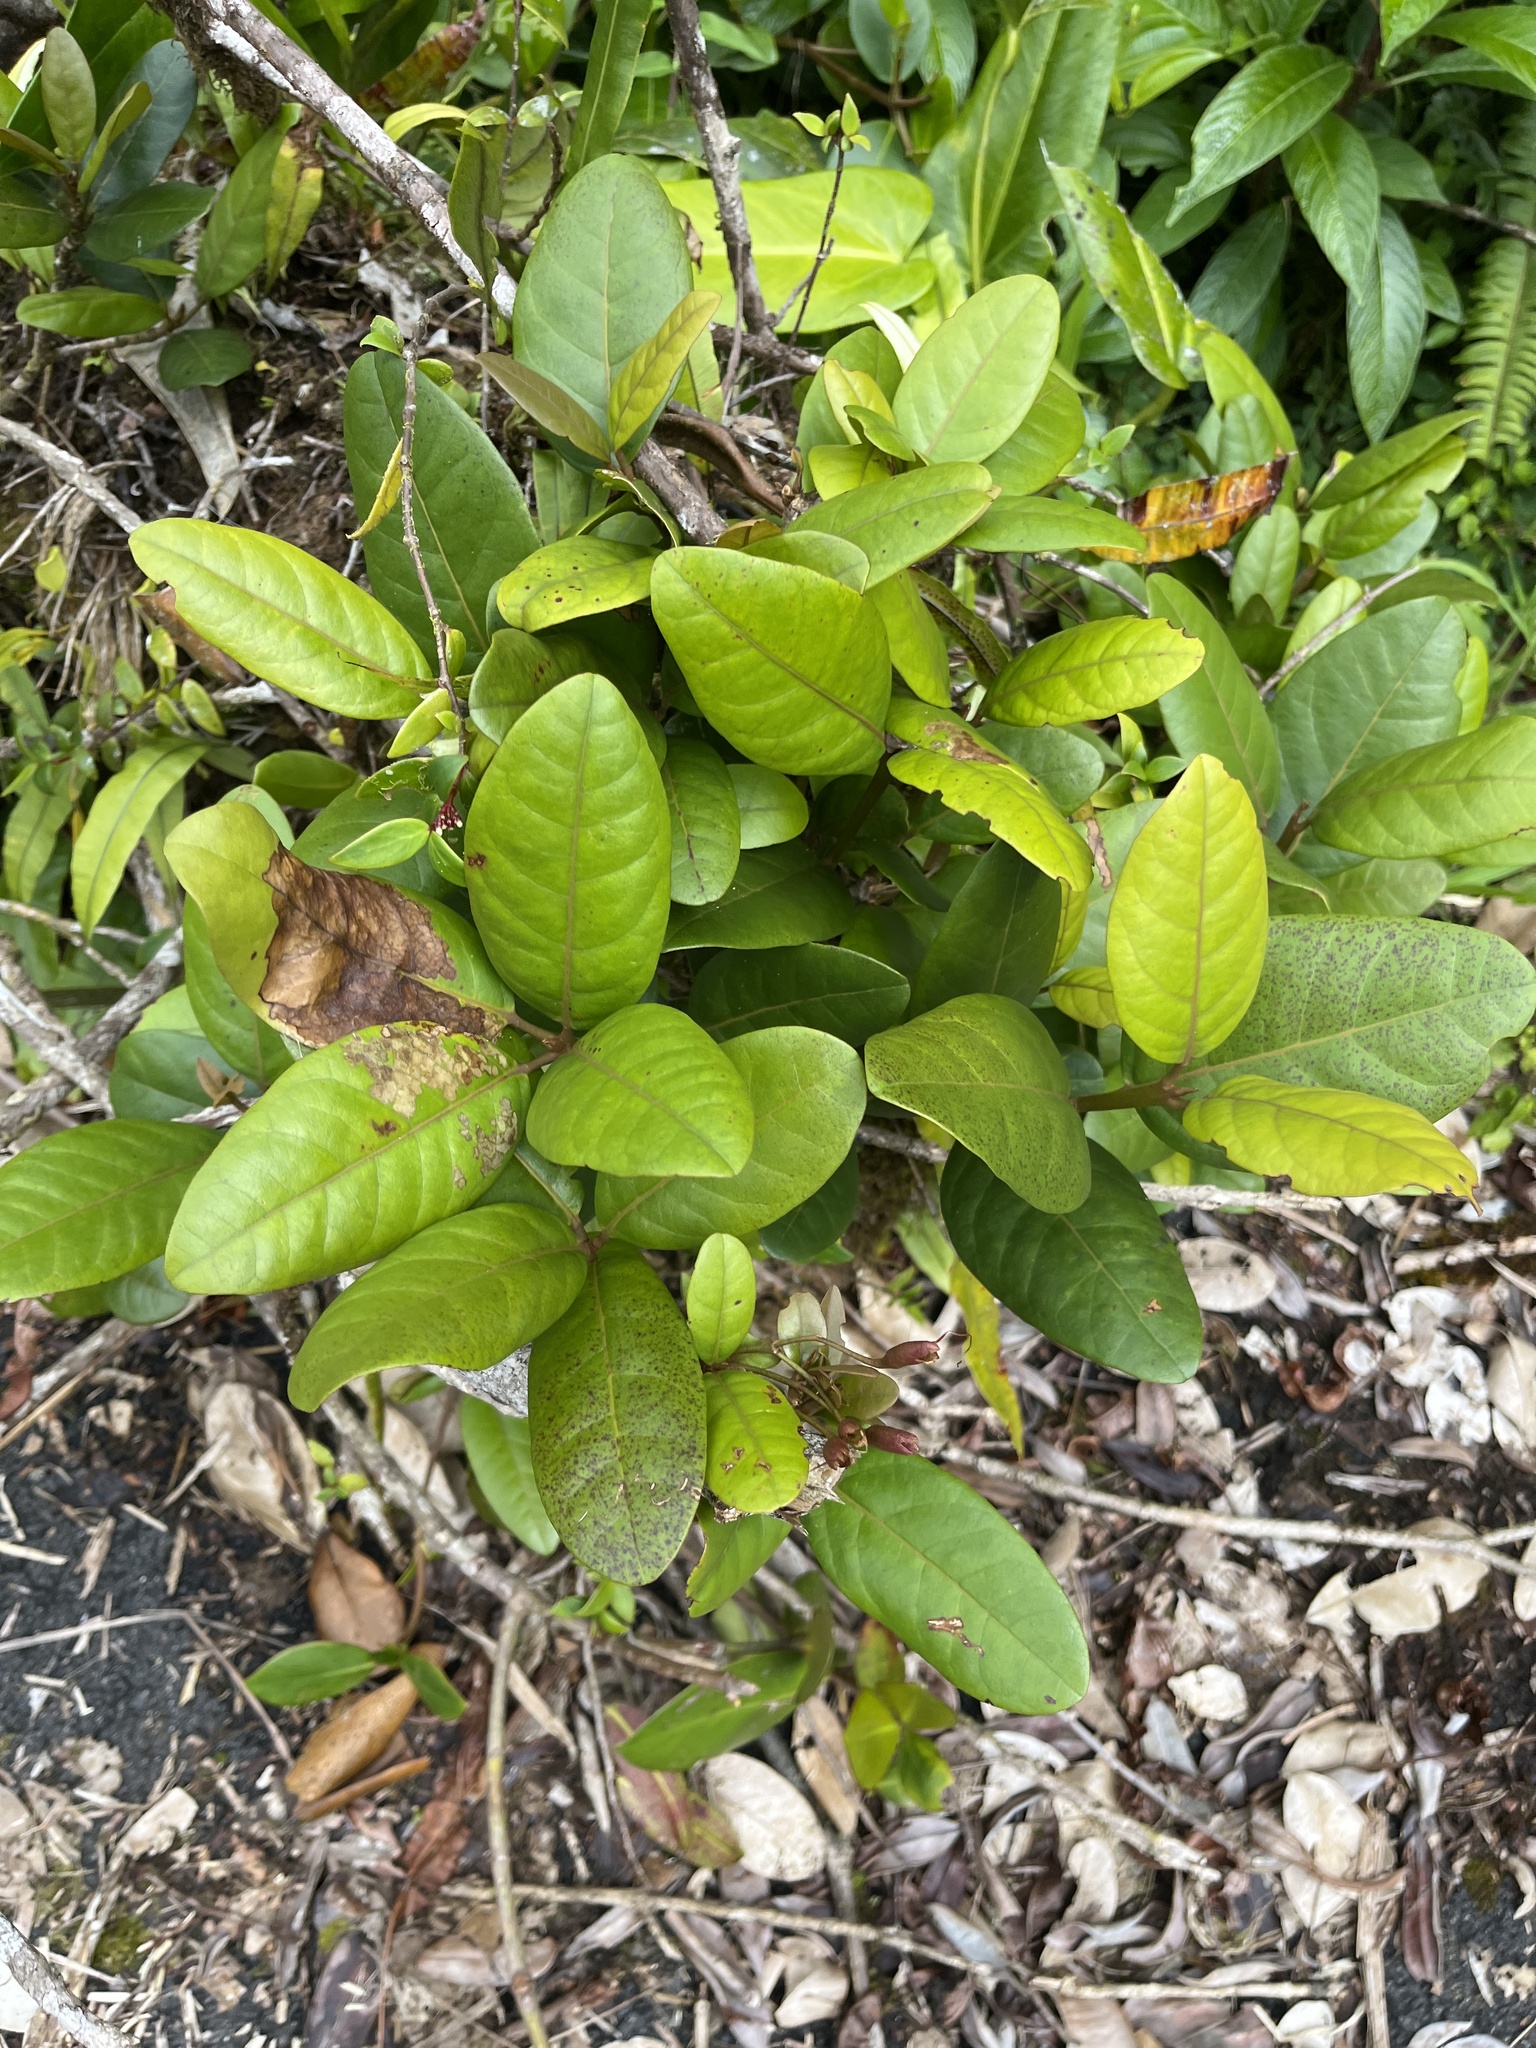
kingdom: Plantae
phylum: Tracheophyta
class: Magnoliopsida
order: Lamiales
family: Bignoniaceae
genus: Tabebuia
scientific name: Tabebuia rigida
